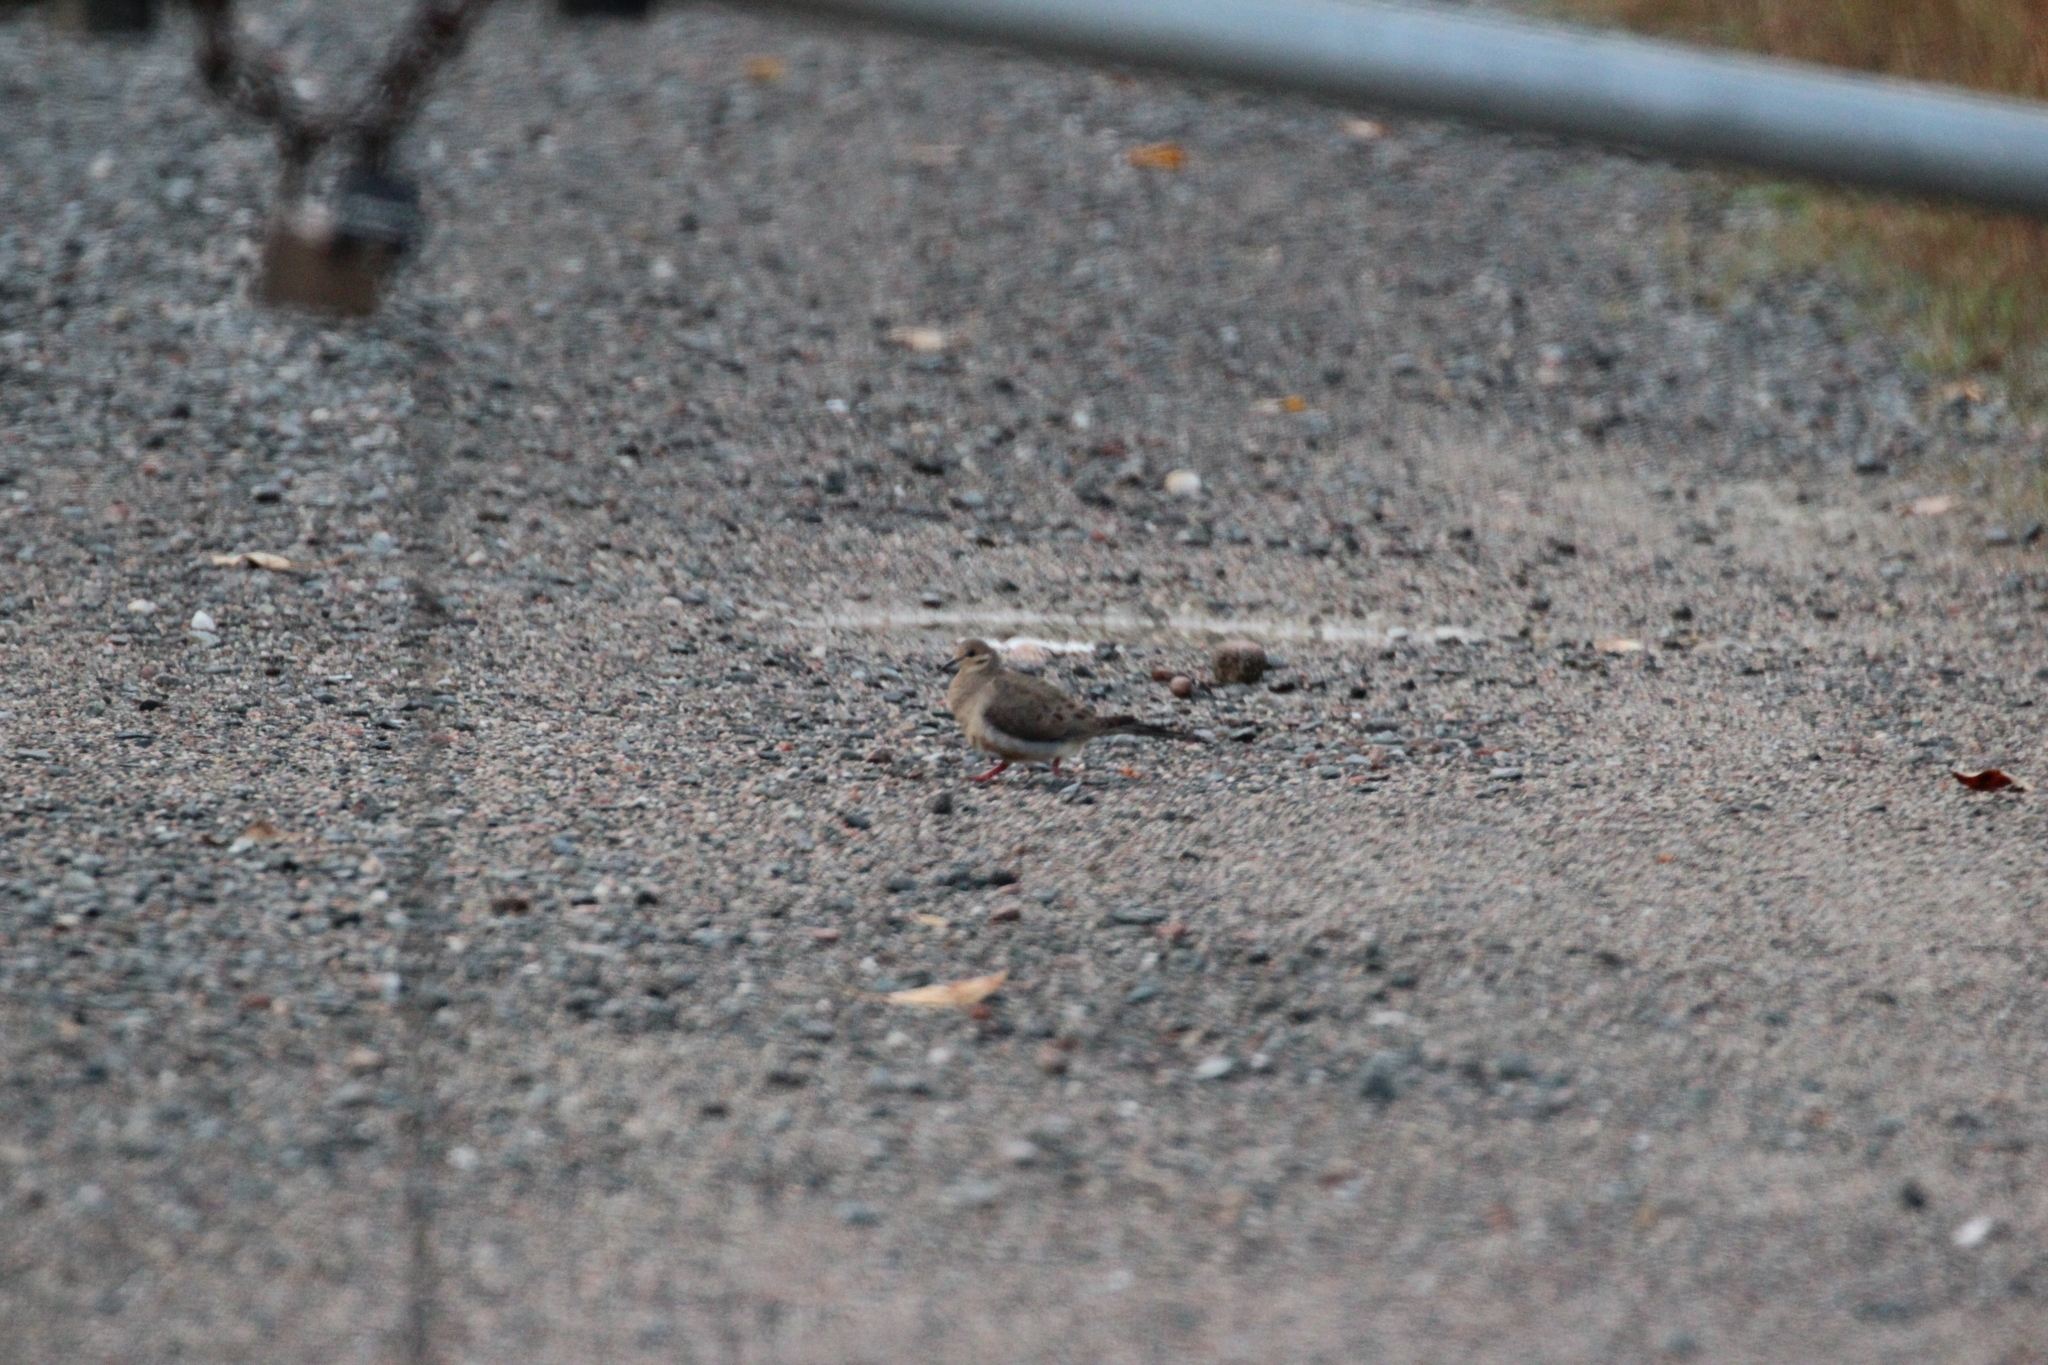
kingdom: Animalia
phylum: Chordata
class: Aves
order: Columbiformes
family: Columbidae
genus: Zenaida
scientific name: Zenaida macroura
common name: Mourning dove
